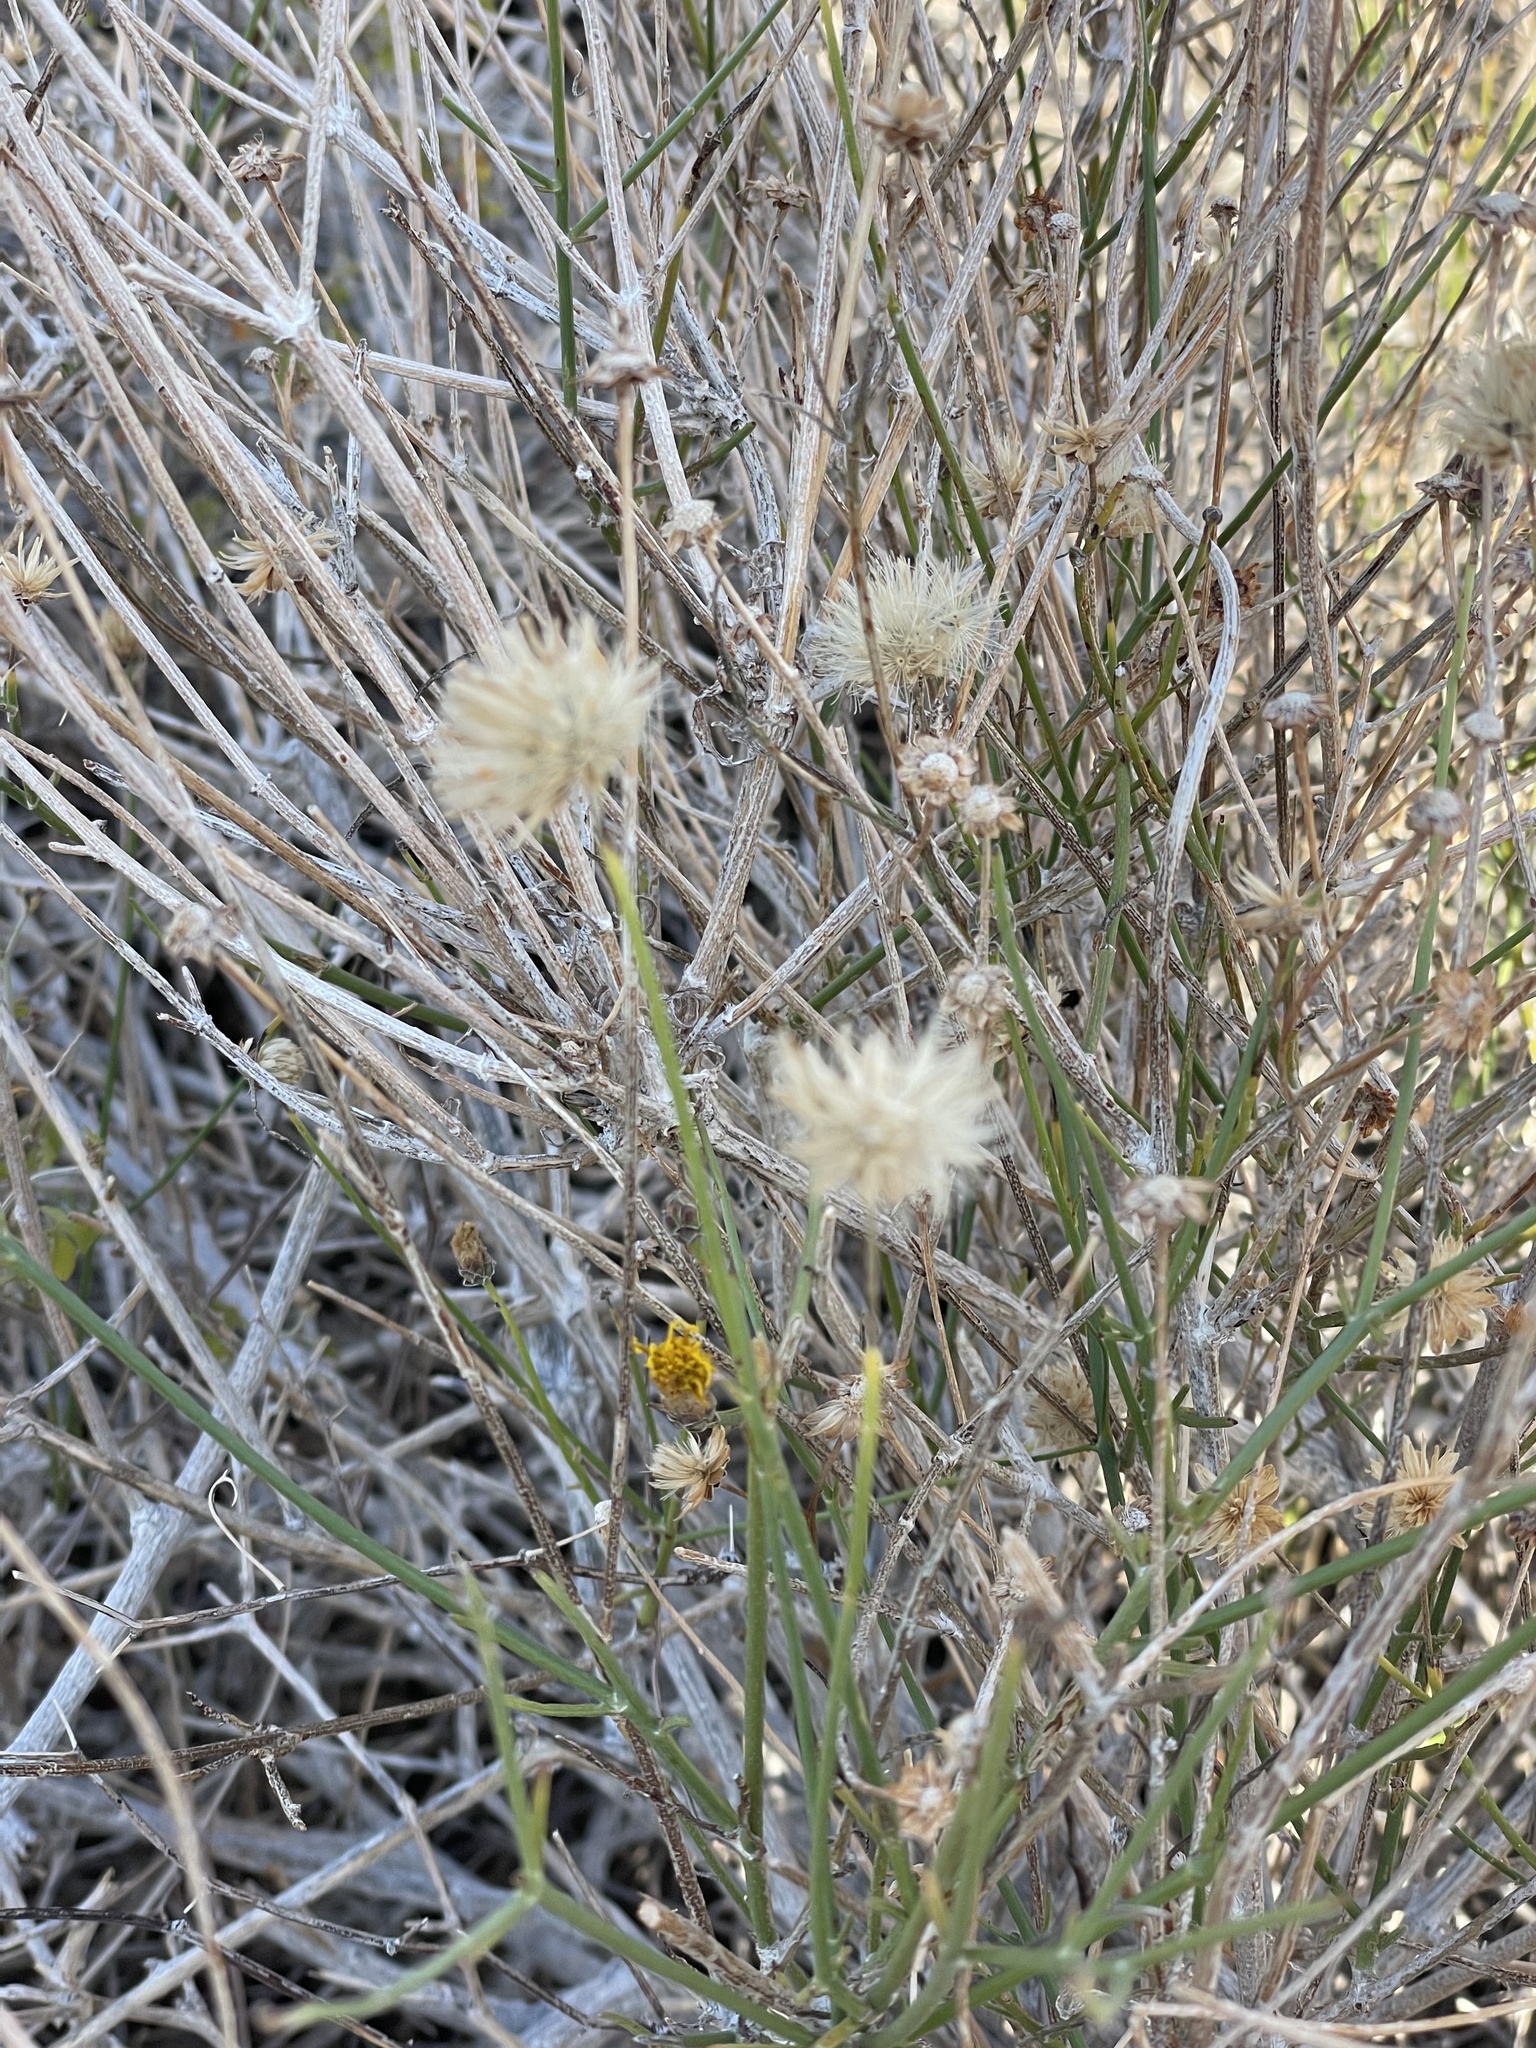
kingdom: Plantae
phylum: Tracheophyta
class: Magnoliopsida
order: Asterales
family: Asteraceae
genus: Bebbia
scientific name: Bebbia juncea
